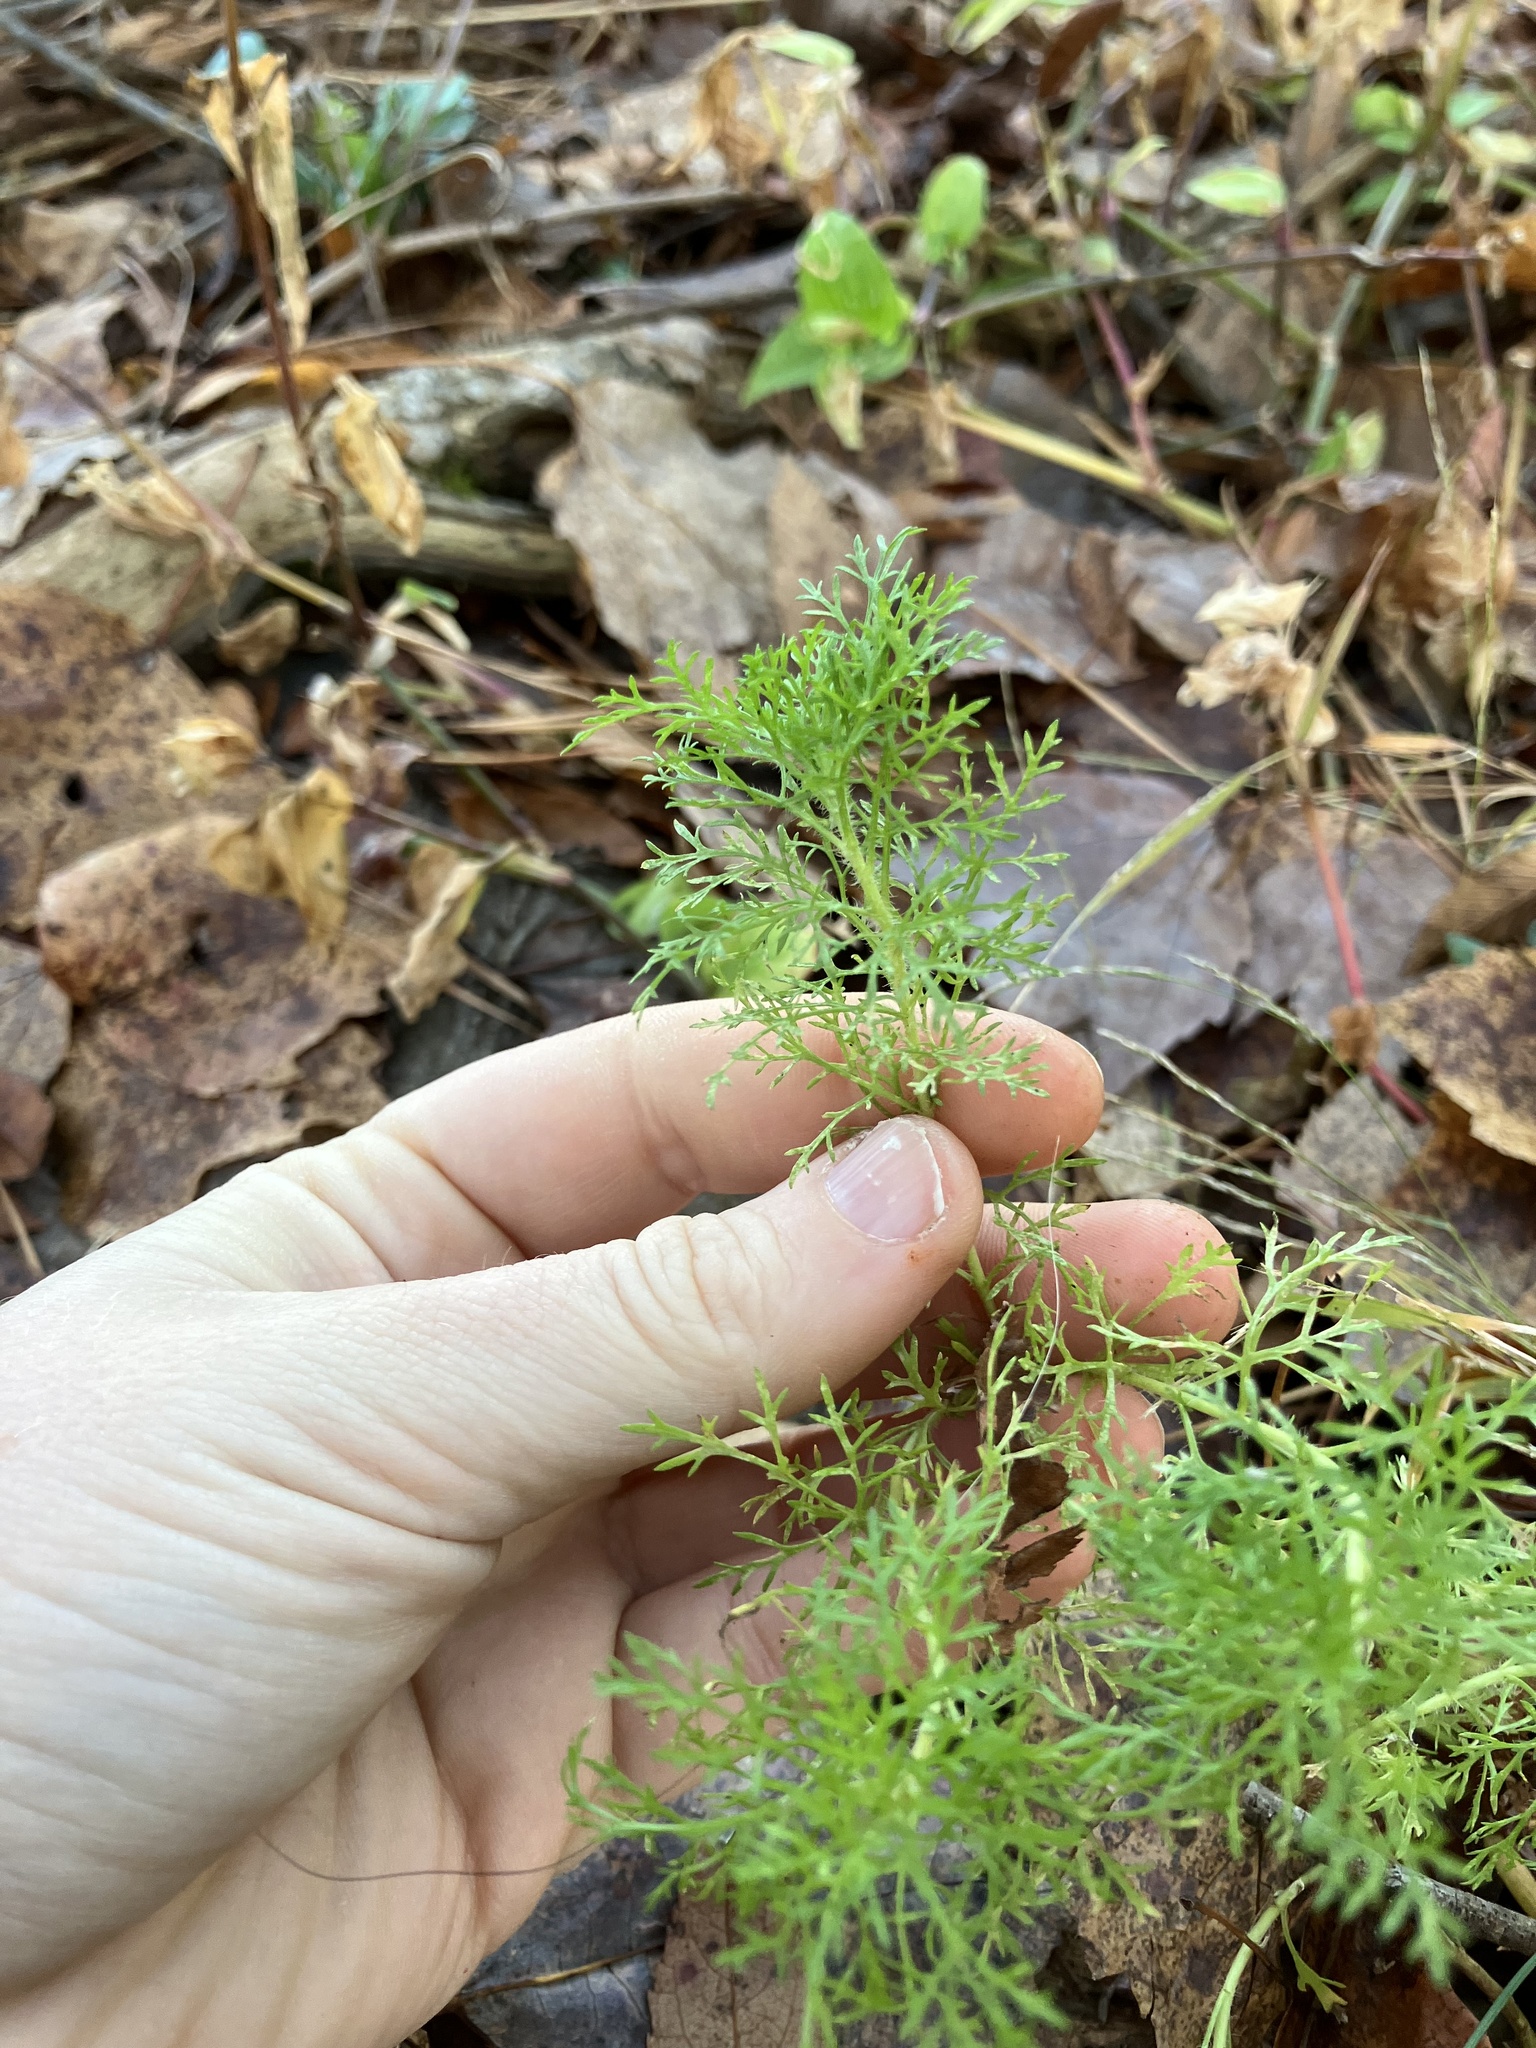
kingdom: Plantae
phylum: Tracheophyta
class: Magnoliopsida
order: Asterales
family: Asteraceae
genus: Eupatorium
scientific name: Eupatorium capillifolium
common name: Dog-fennel
